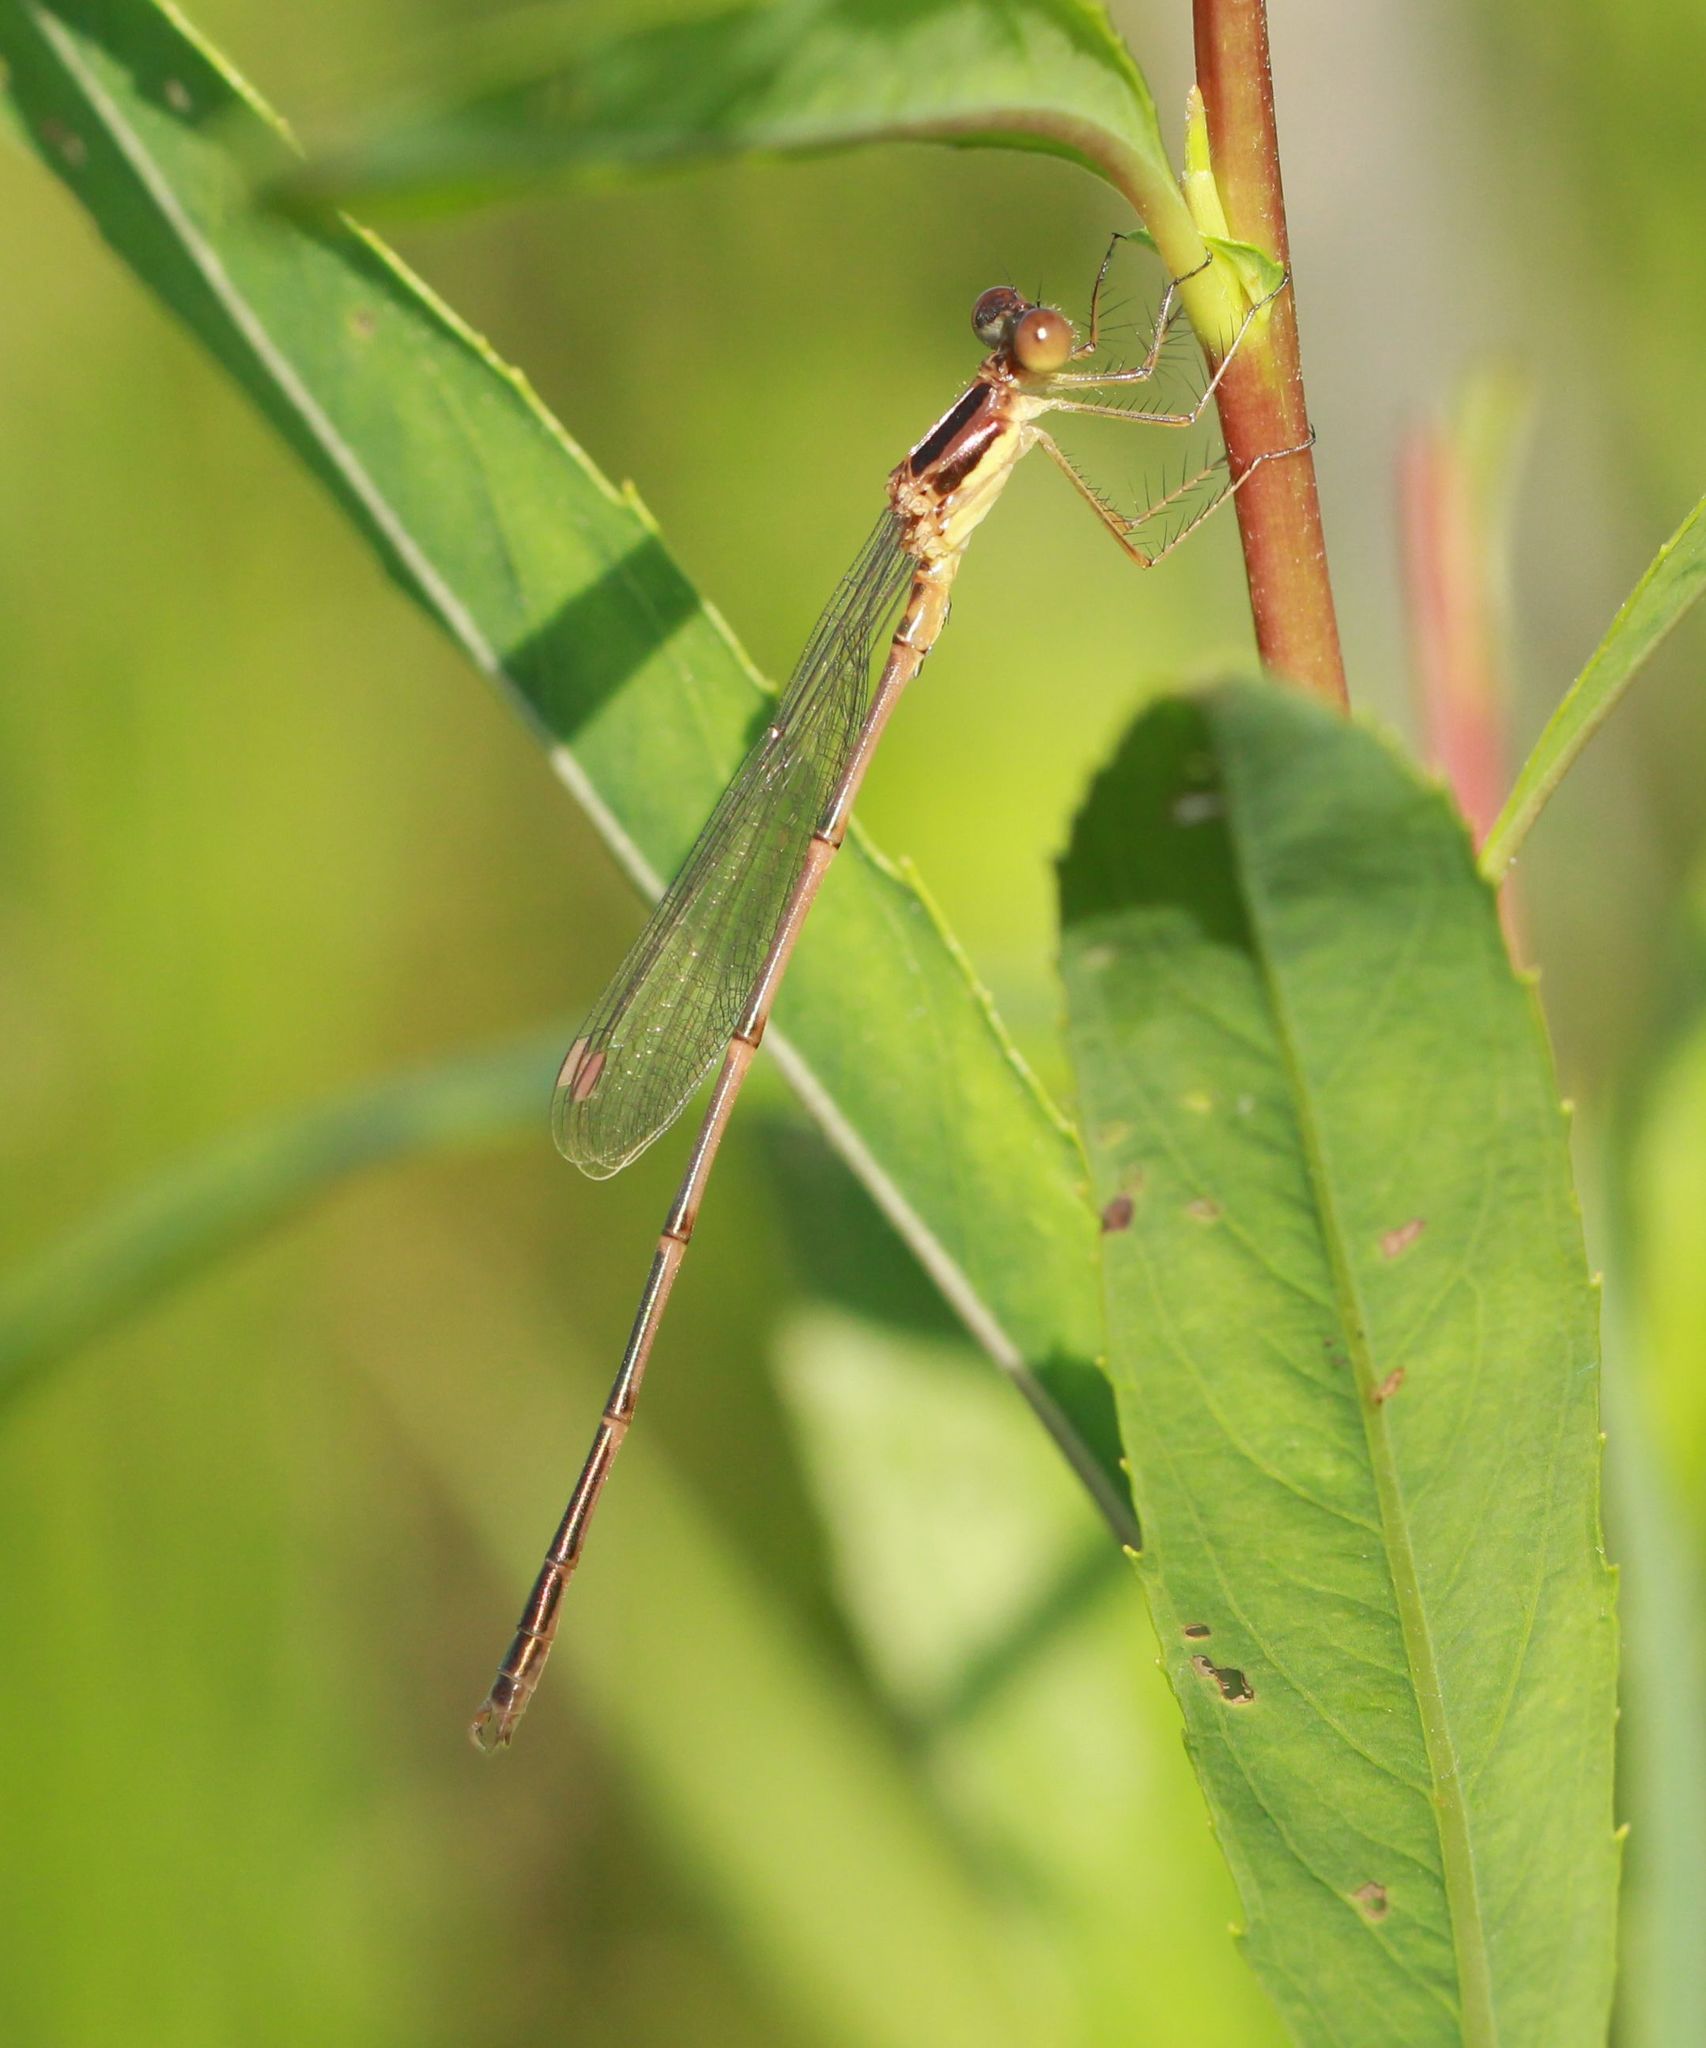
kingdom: Animalia
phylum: Arthropoda
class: Insecta
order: Odonata
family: Lestidae
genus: Lestes
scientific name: Lestes rectangularis
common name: Slender spreadwing
